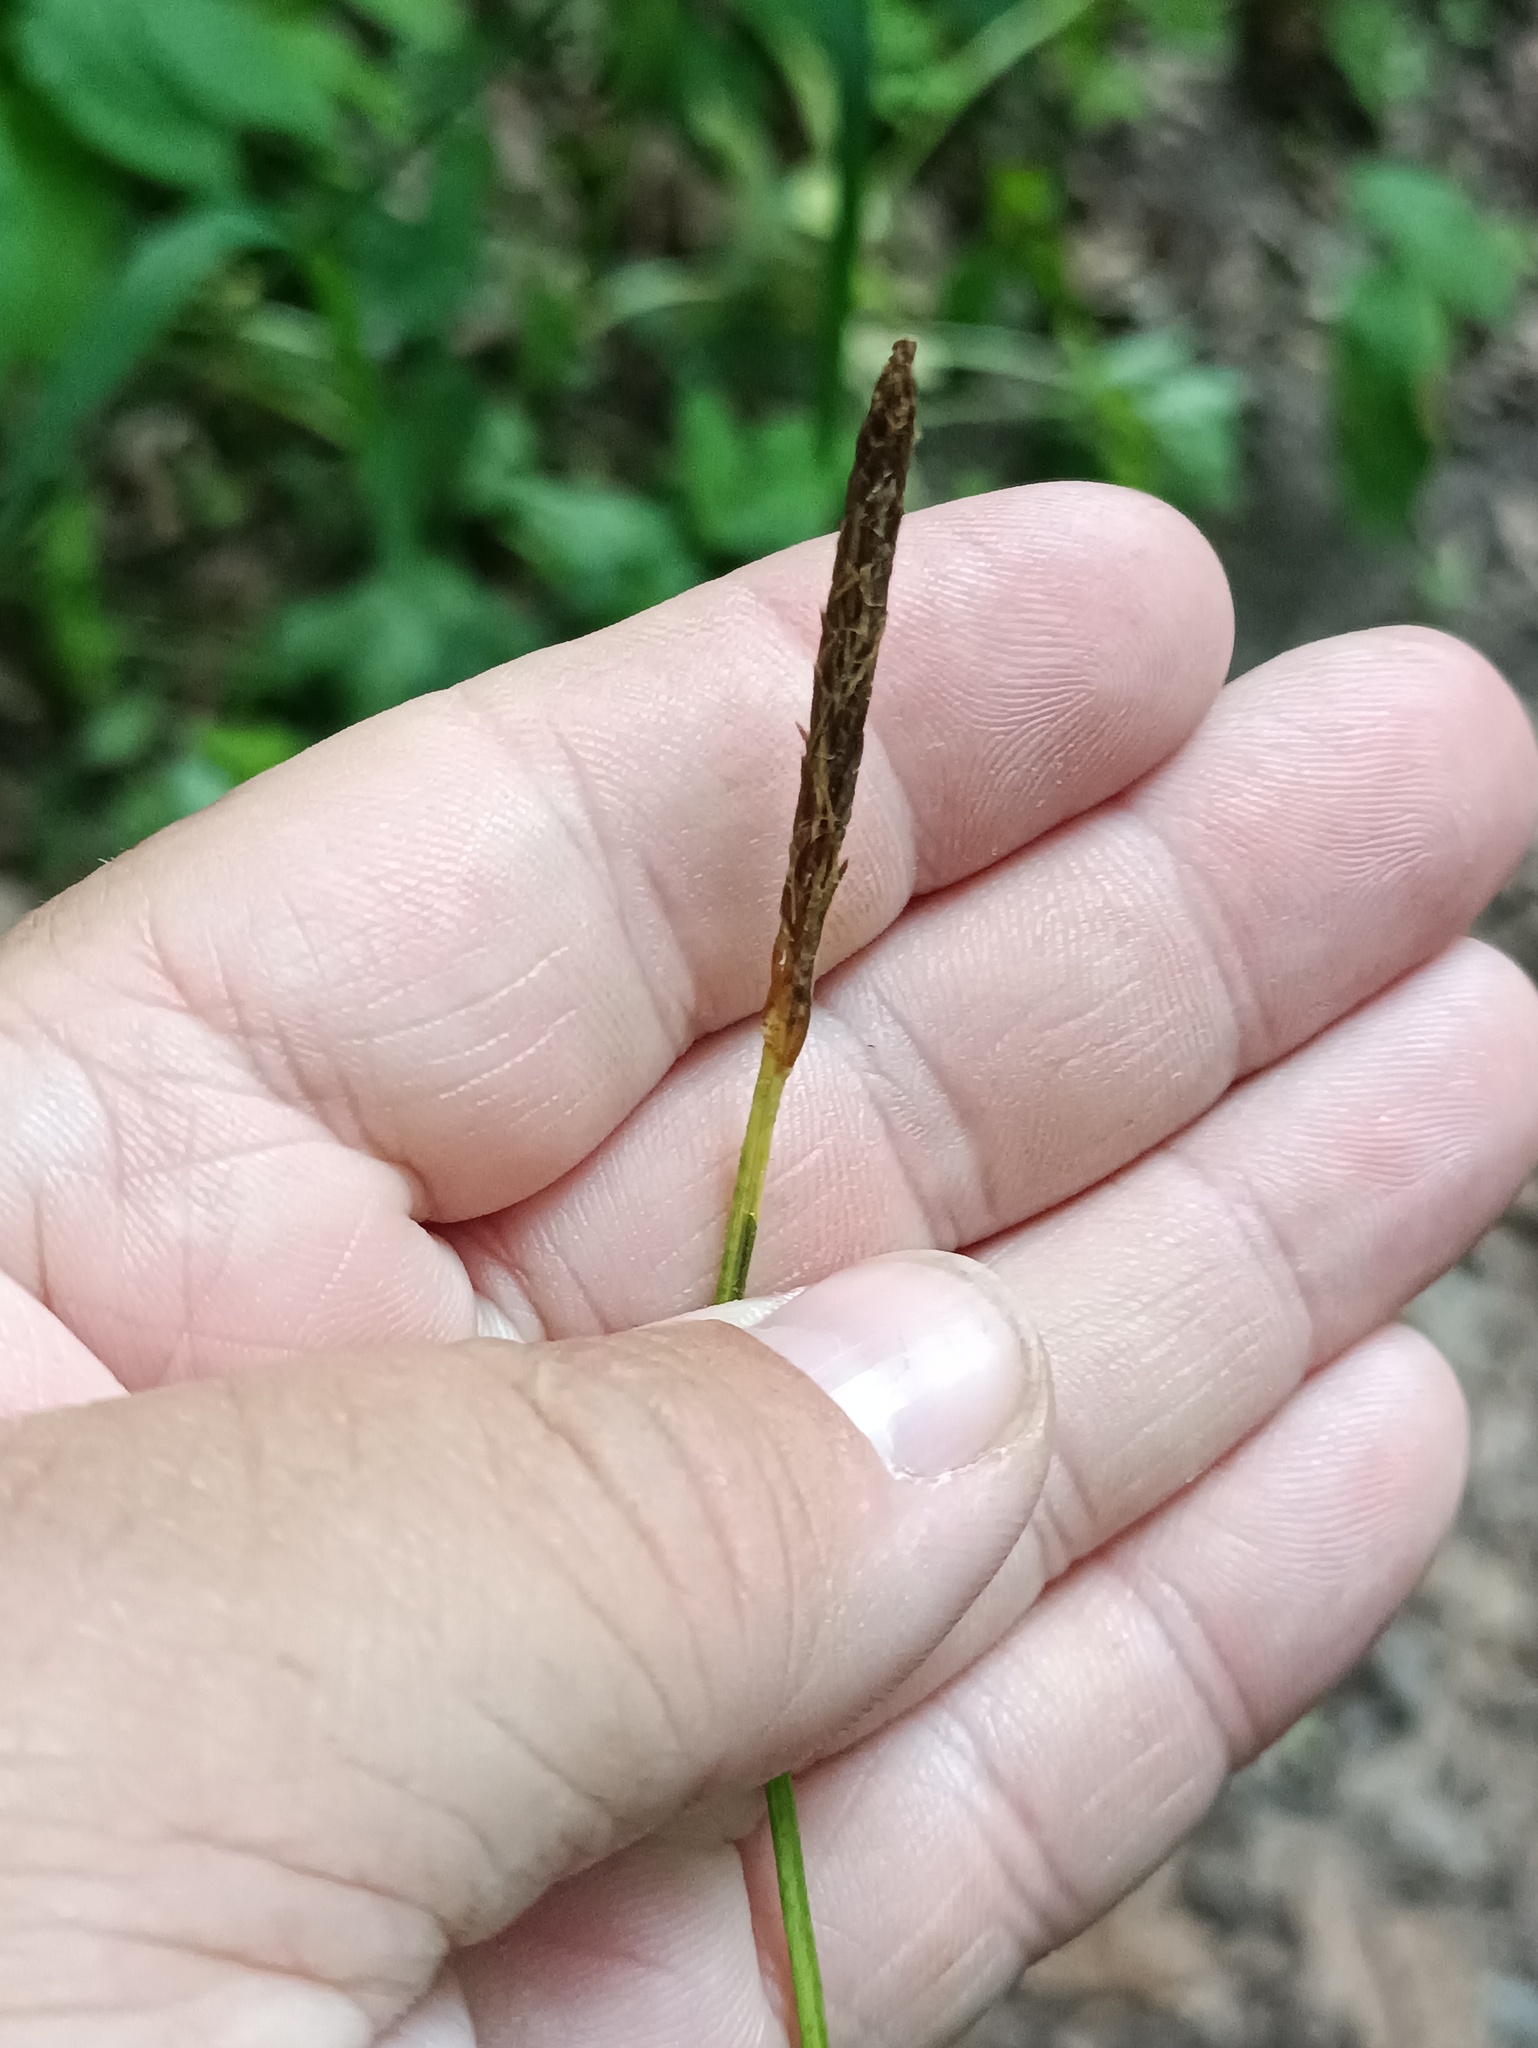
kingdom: Plantae
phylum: Tracheophyta
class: Liliopsida
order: Poales
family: Cyperaceae
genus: Carex
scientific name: Carex pilosa
